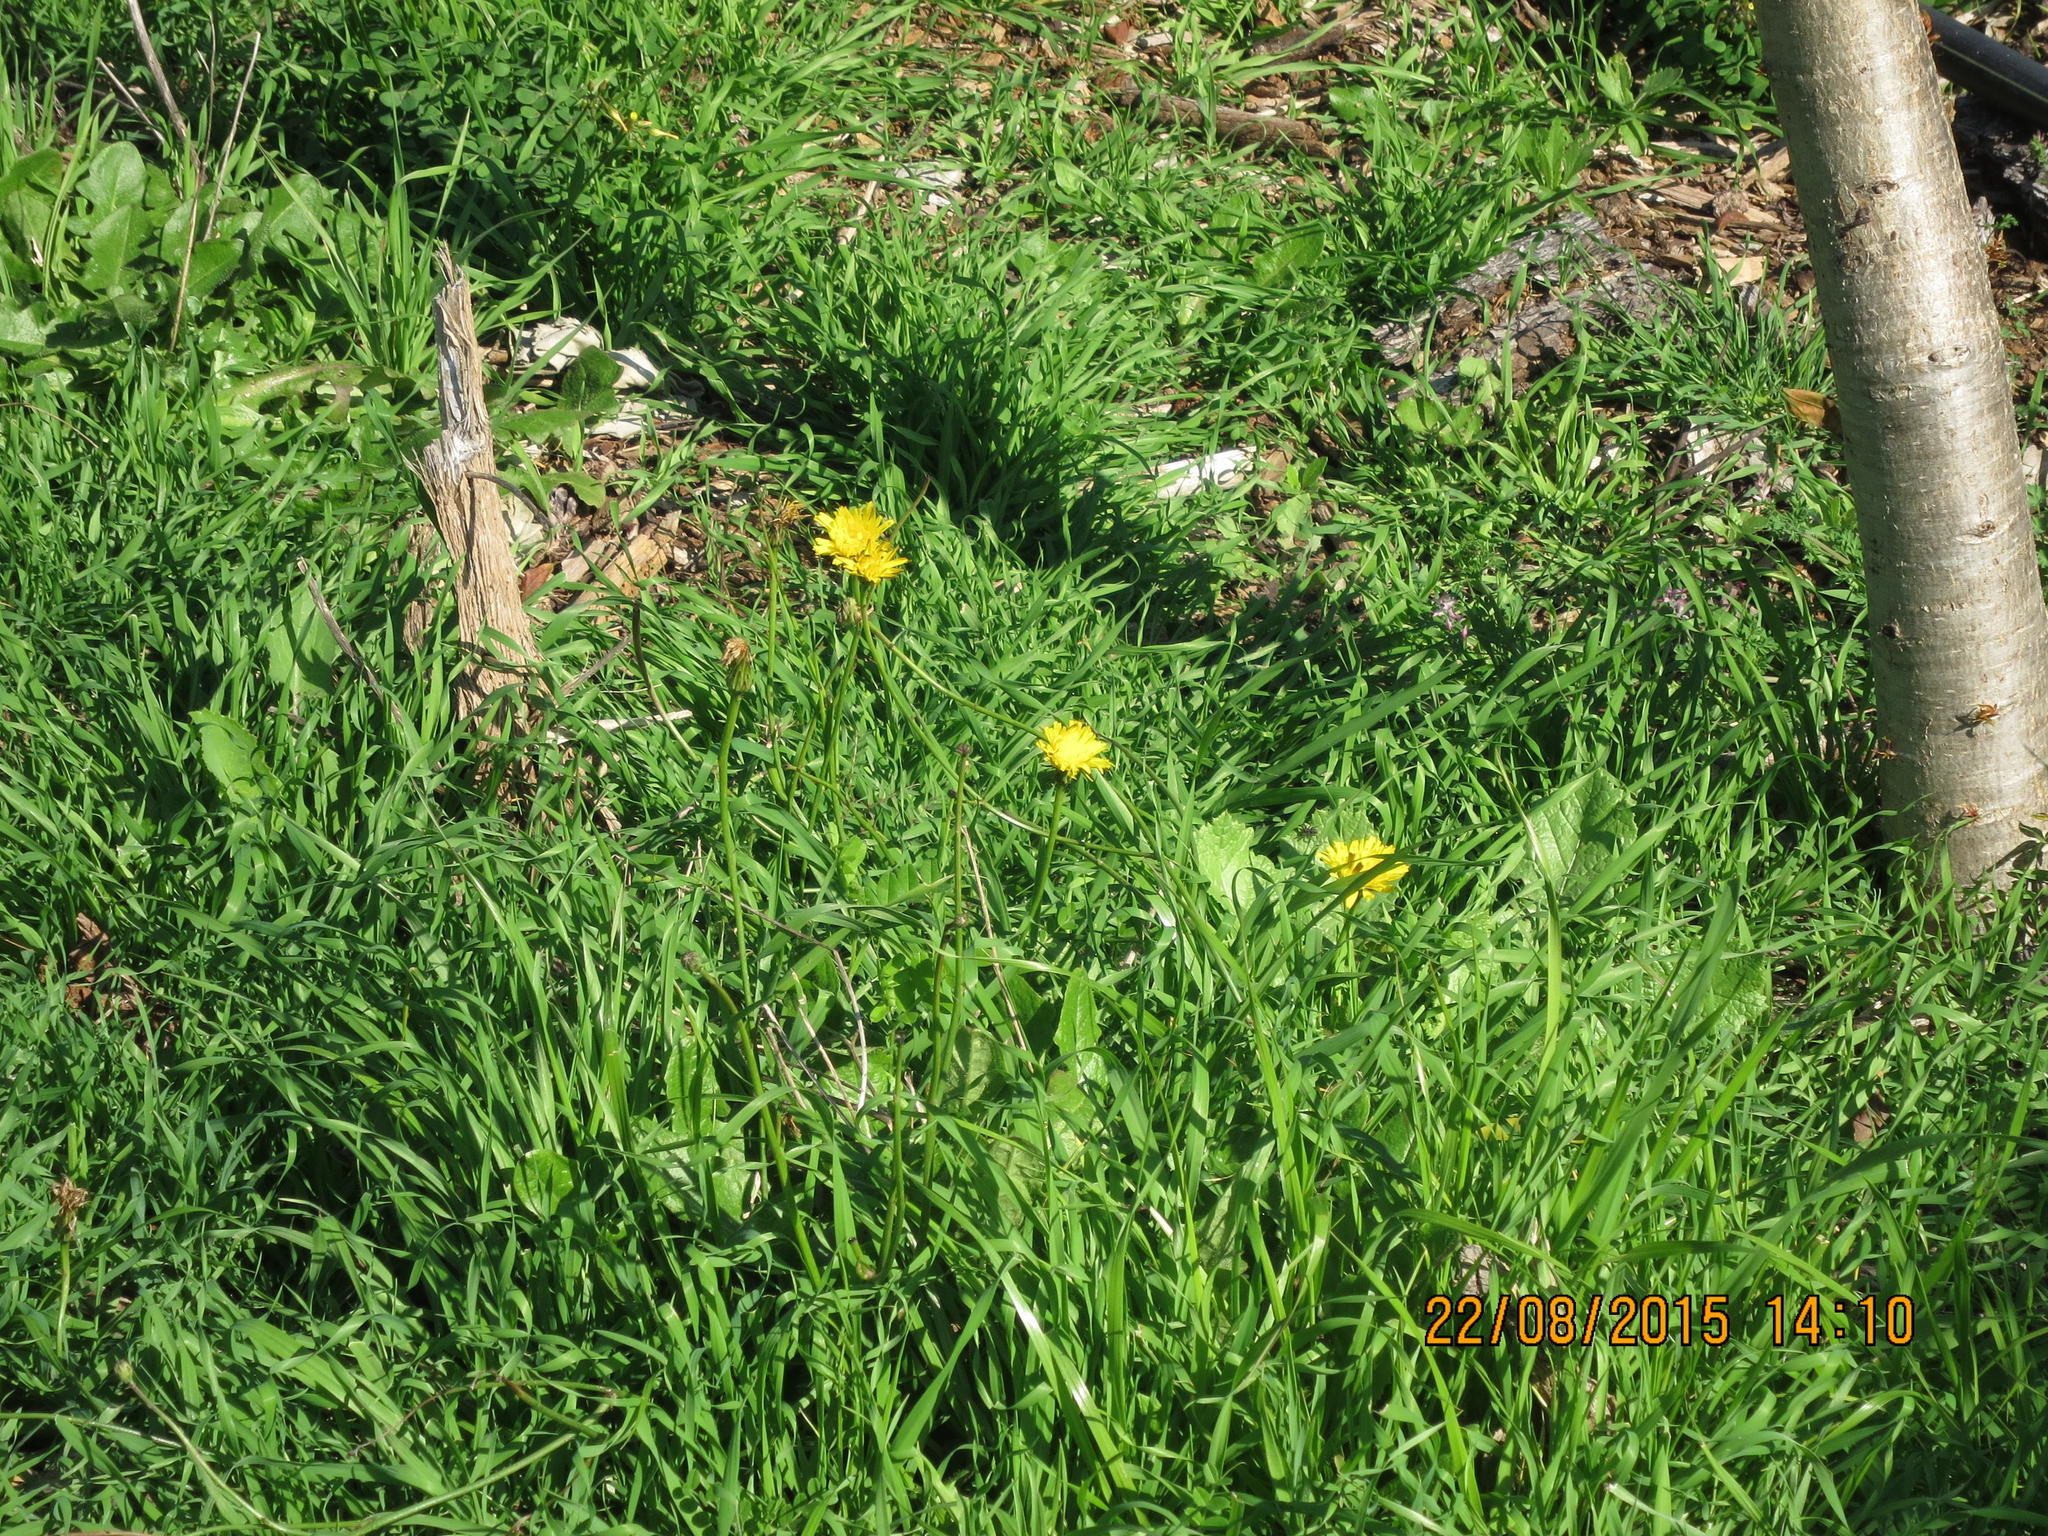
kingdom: Plantae
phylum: Tracheophyta
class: Magnoliopsida
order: Asterales
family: Asteraceae
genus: Hypochaeris
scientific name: Hypochaeris radicata
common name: Flatweed
